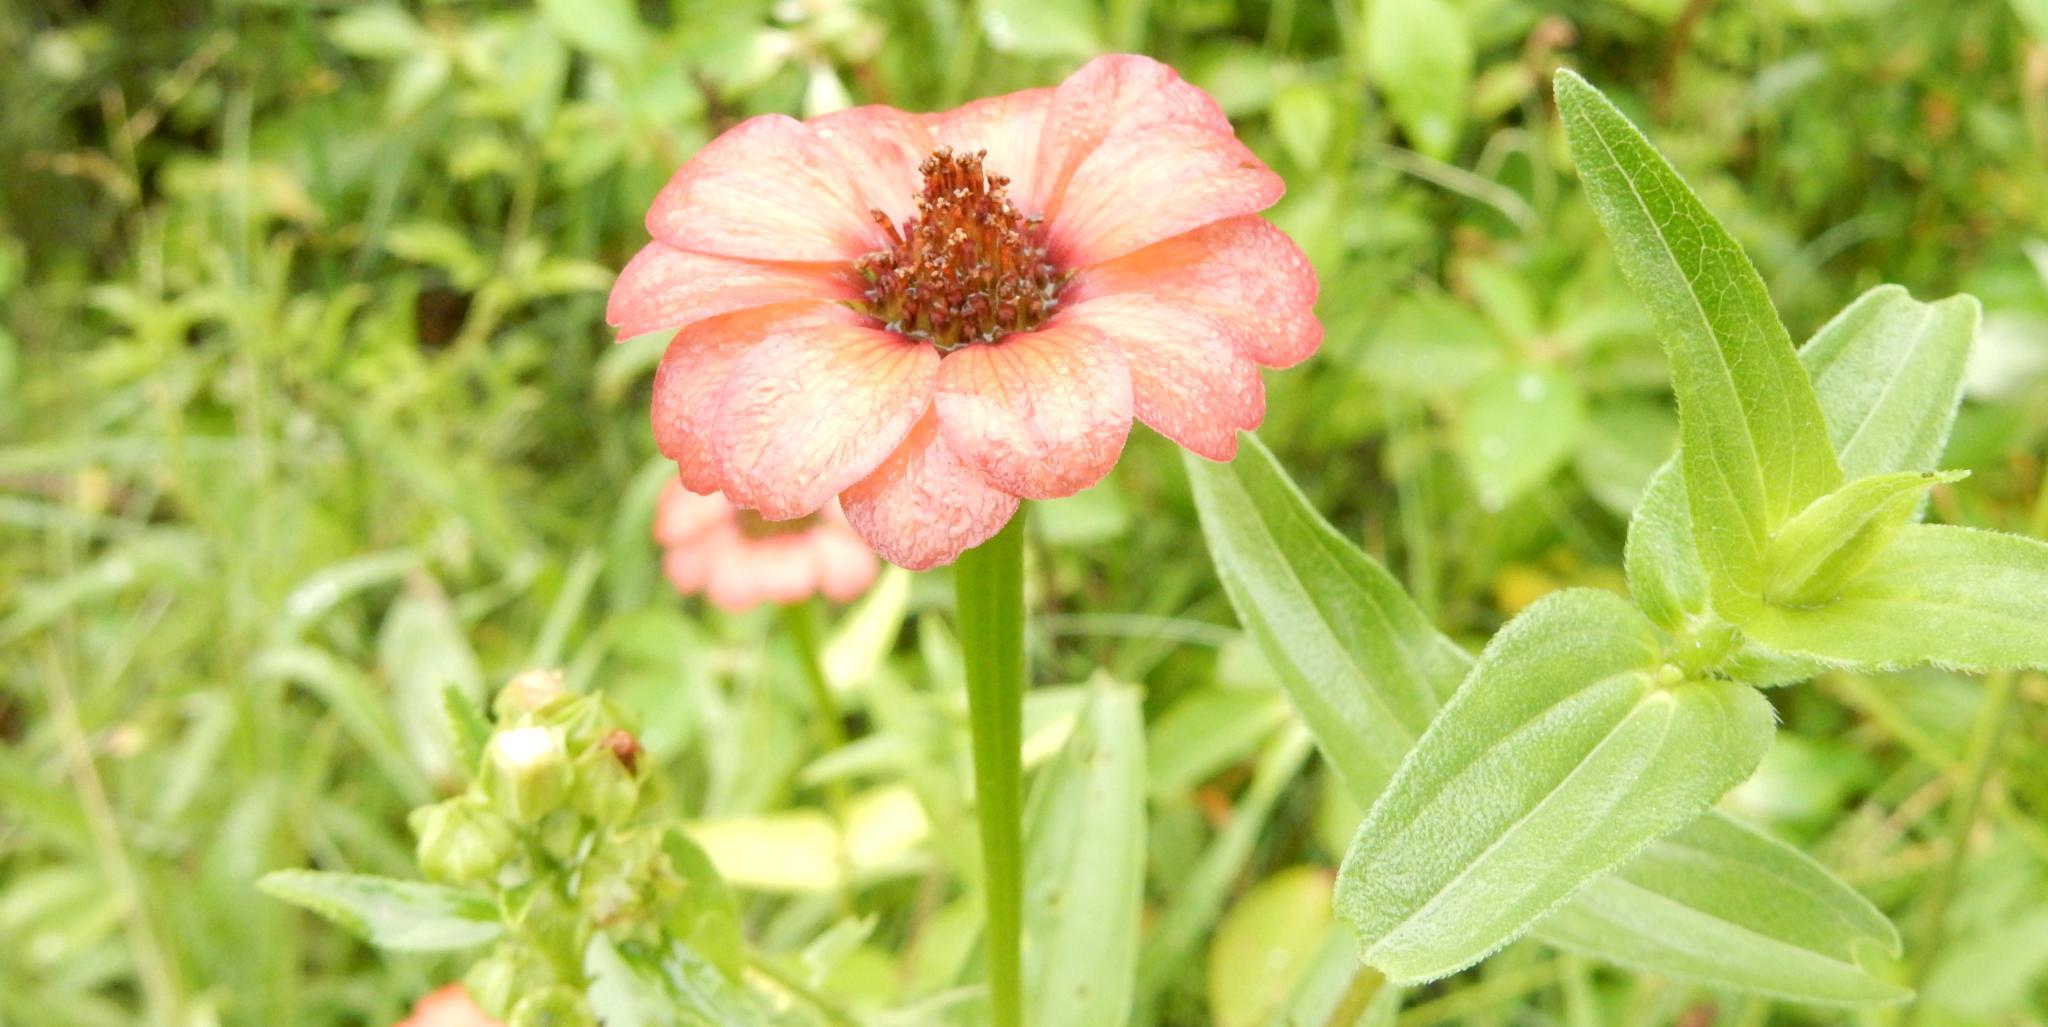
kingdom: Plantae
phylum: Tracheophyta
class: Magnoliopsida
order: Asterales
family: Asteraceae
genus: Zinnia
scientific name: Zinnia peruviana
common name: Peruvian zinnia
